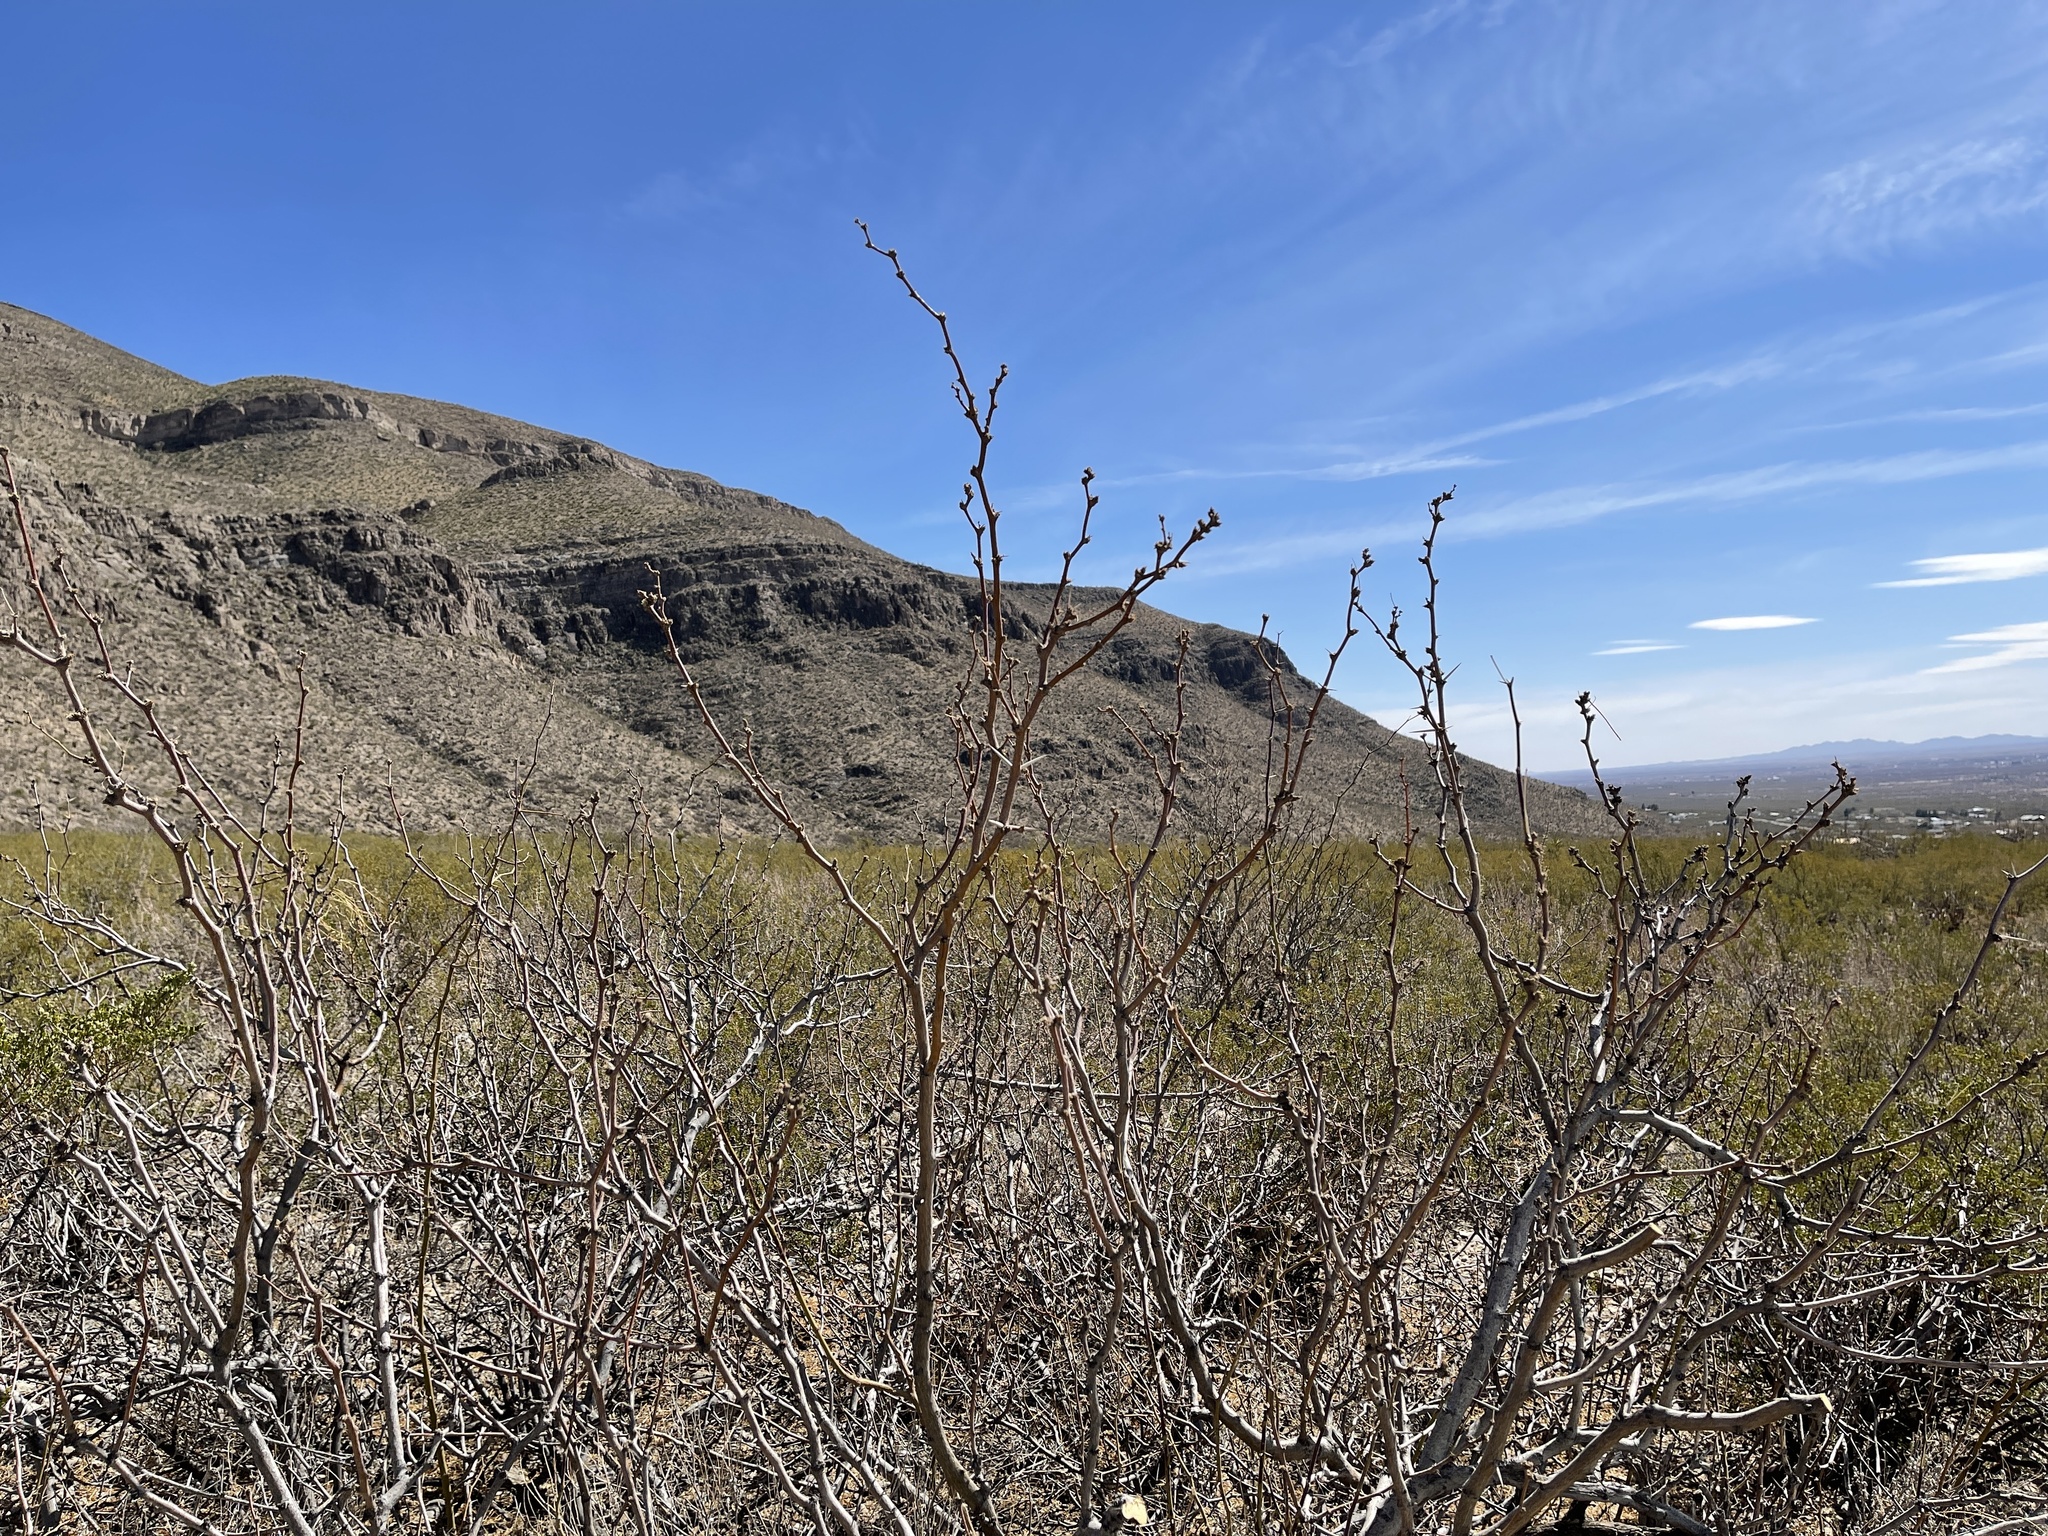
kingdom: Plantae
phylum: Tracheophyta
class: Magnoliopsida
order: Fabales
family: Fabaceae
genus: Prosopis
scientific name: Prosopis glandulosa
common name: Honey mesquite
